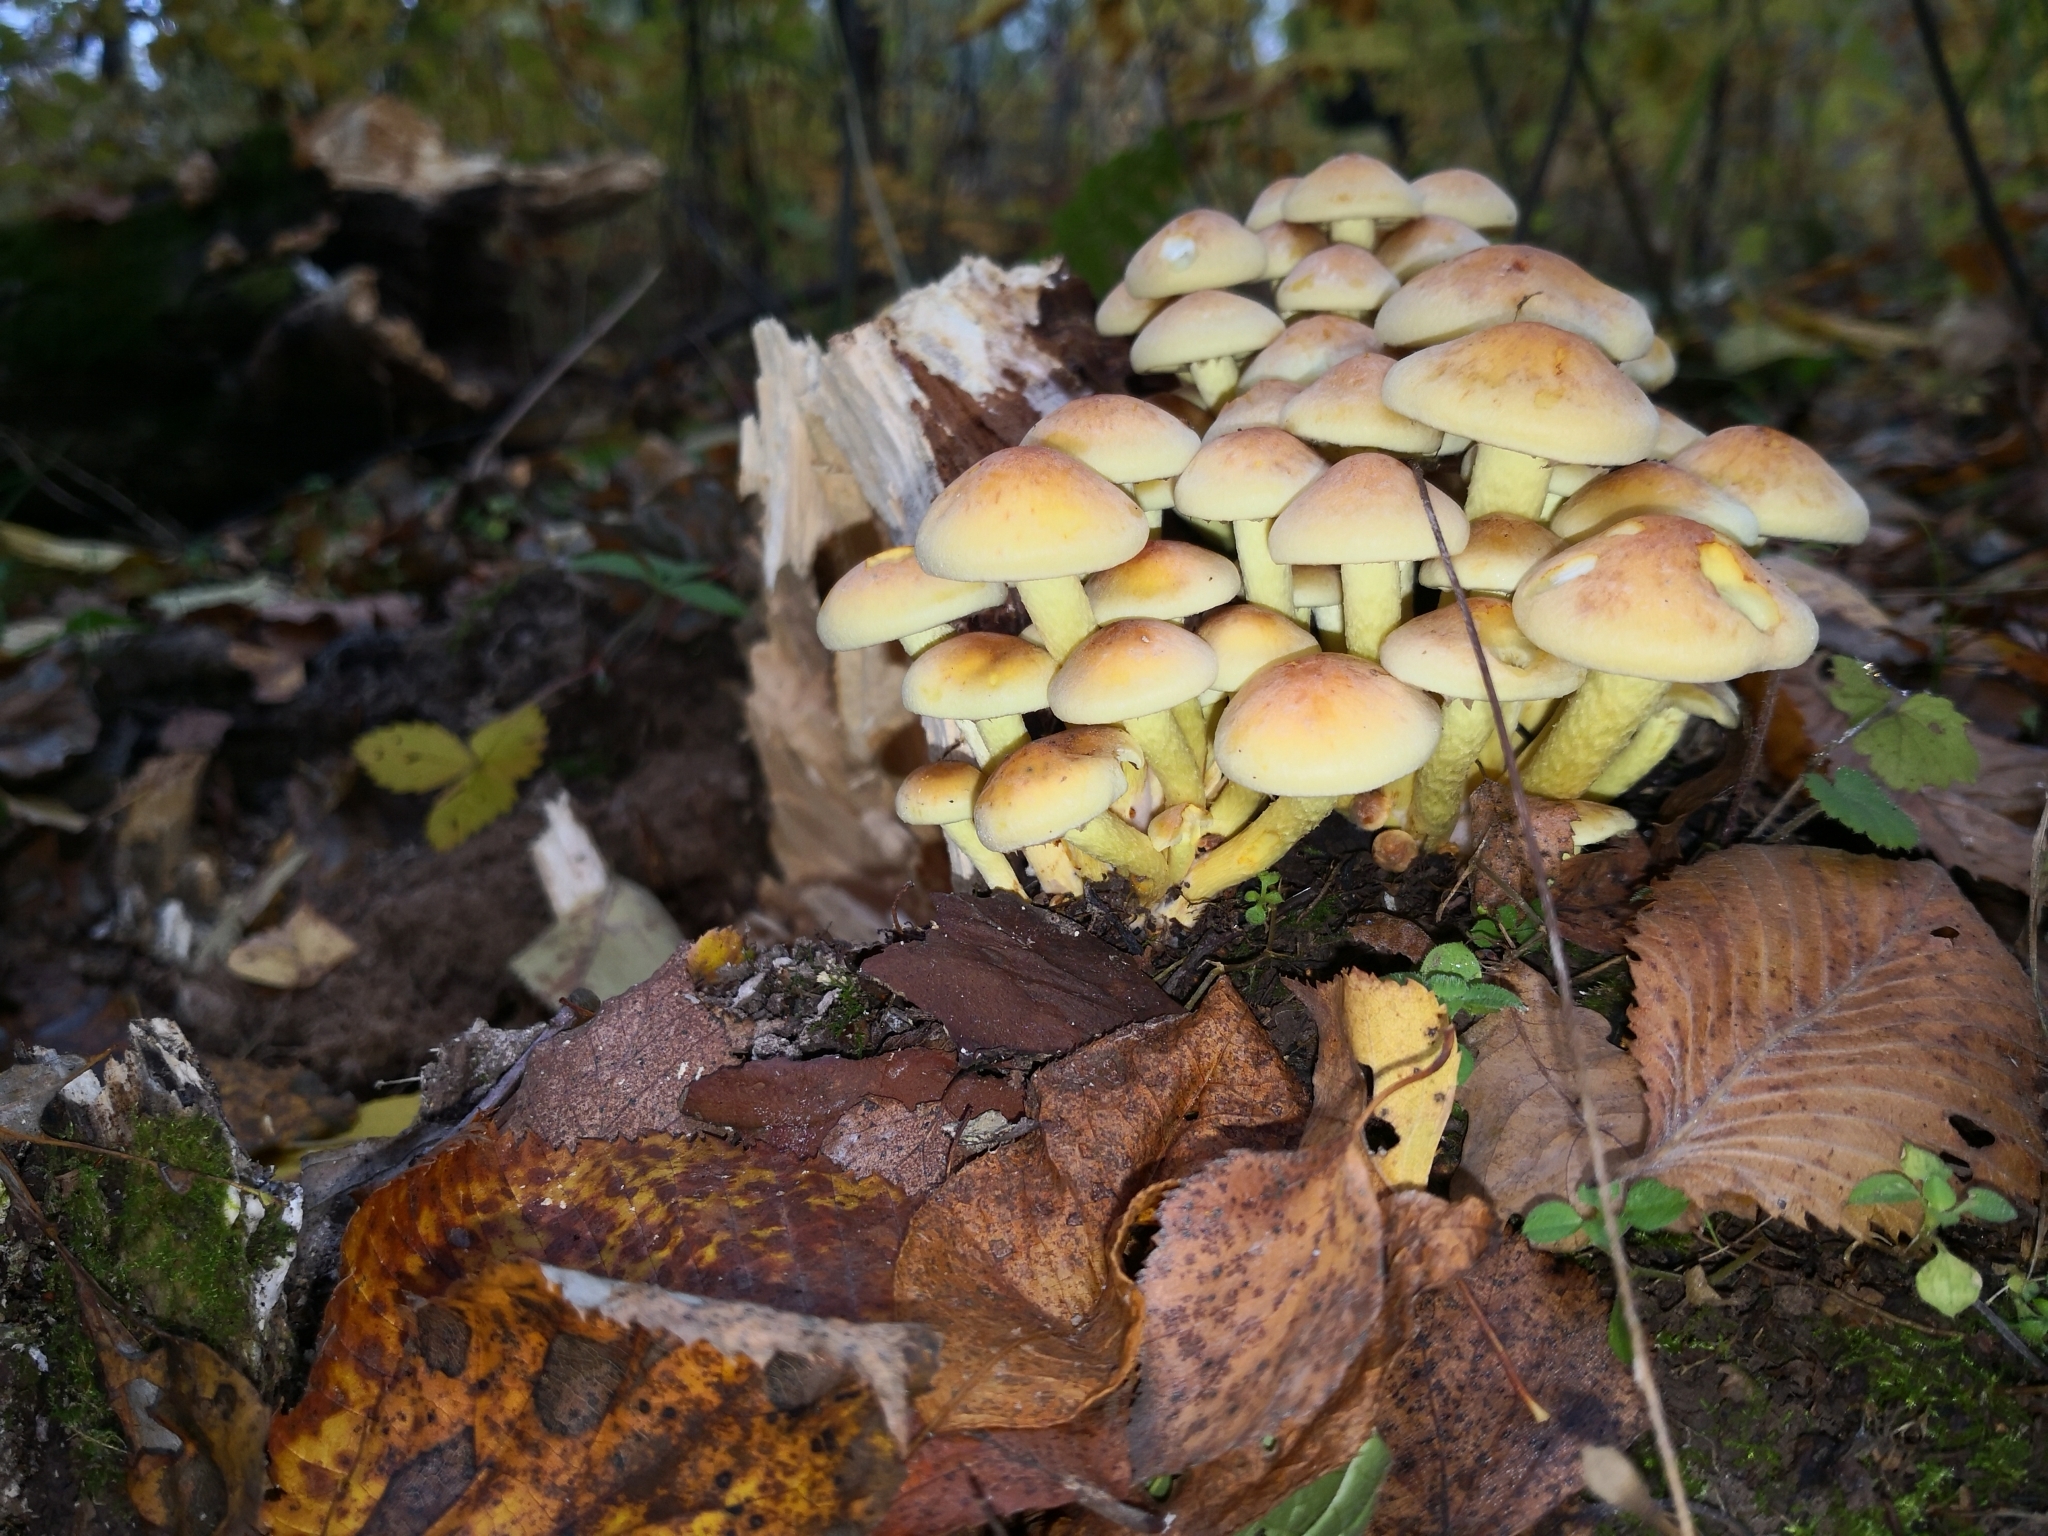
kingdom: Fungi
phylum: Basidiomycota
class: Agaricomycetes
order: Agaricales
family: Strophariaceae
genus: Hypholoma
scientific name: Hypholoma fasciculare
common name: Sulphur tuft
